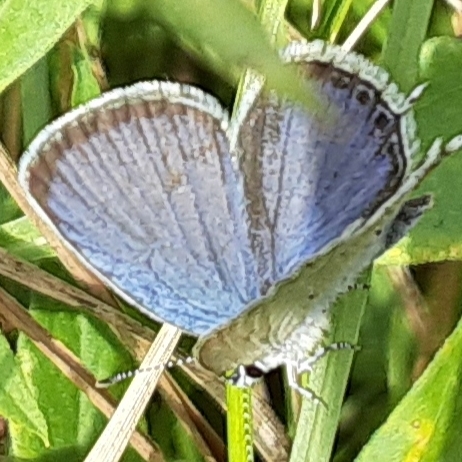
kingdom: Animalia
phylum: Arthropoda
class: Insecta
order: Lepidoptera
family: Lycaenidae
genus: Elkalyce
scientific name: Elkalyce comyntas
